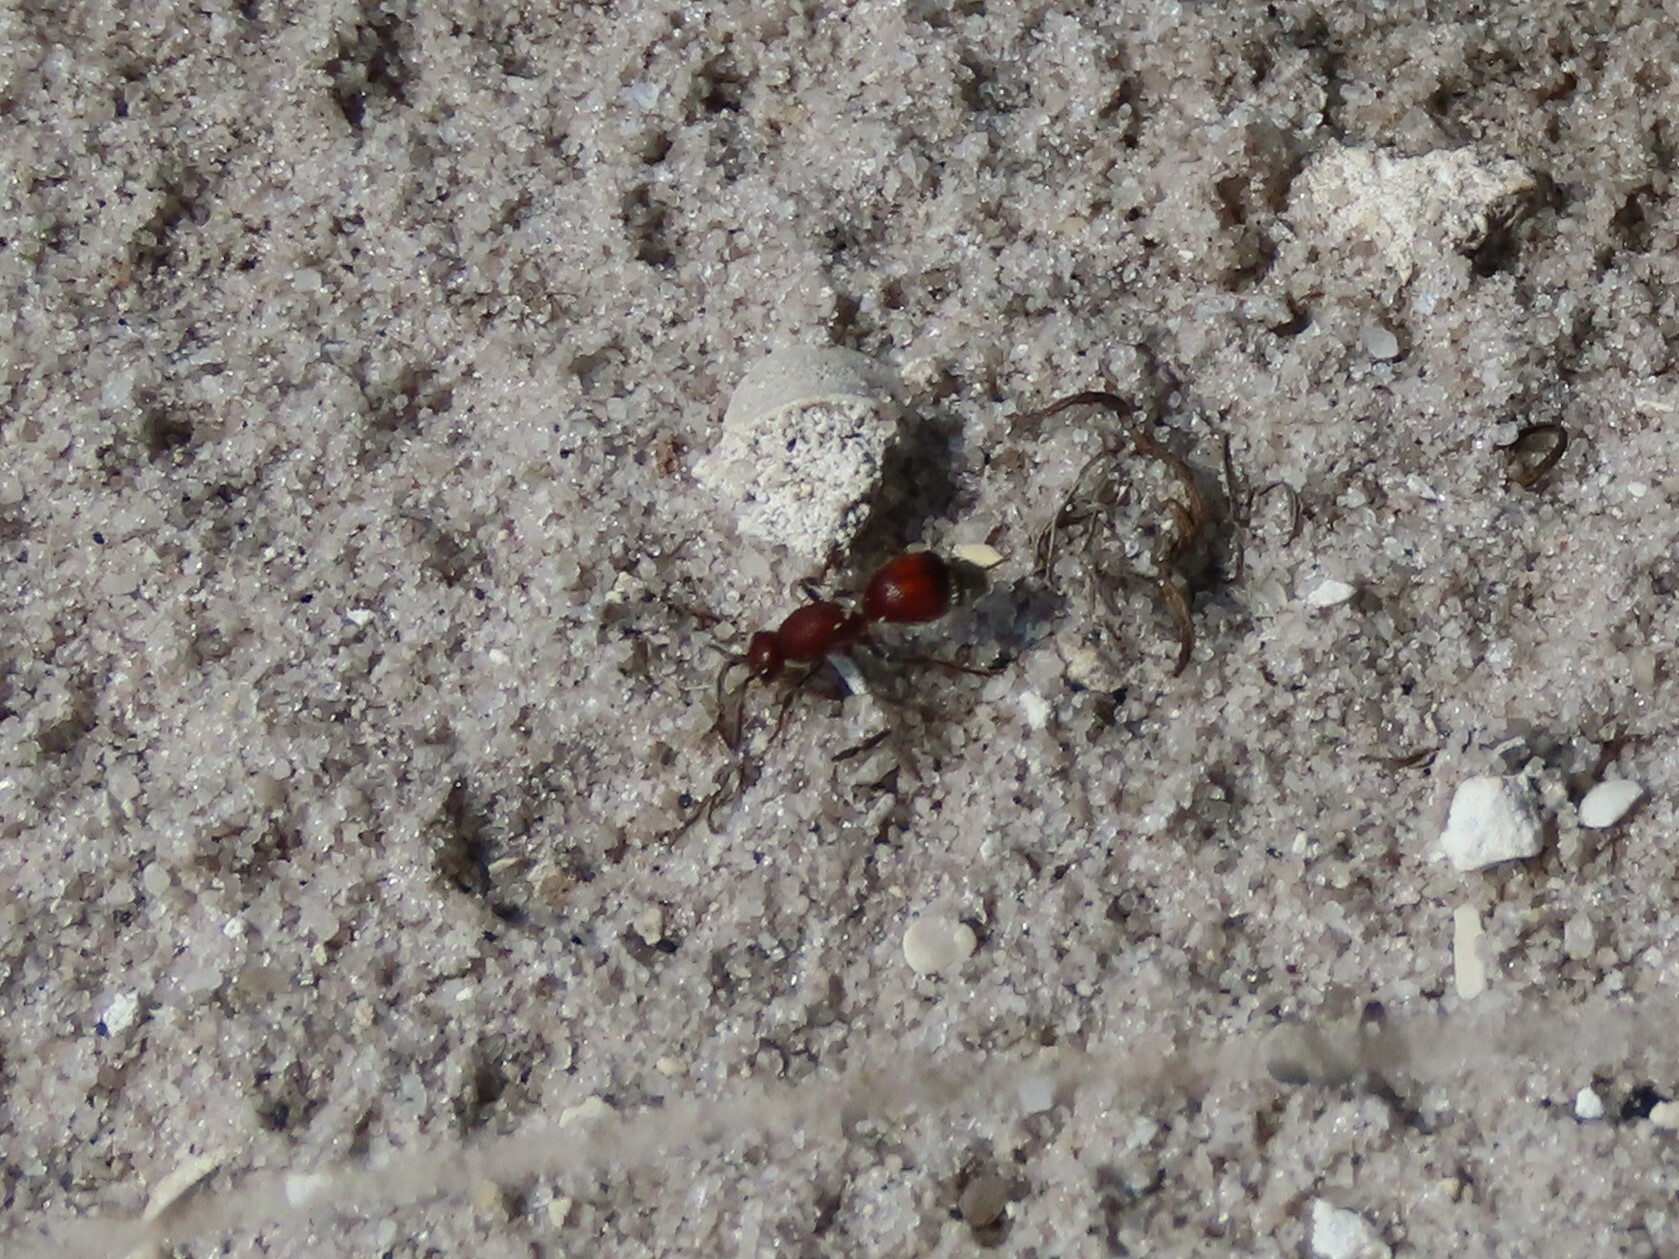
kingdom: Animalia
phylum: Arthropoda
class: Insecta
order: Hymenoptera
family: Mutillidae
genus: Dasymutilla
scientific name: Dasymutilla
